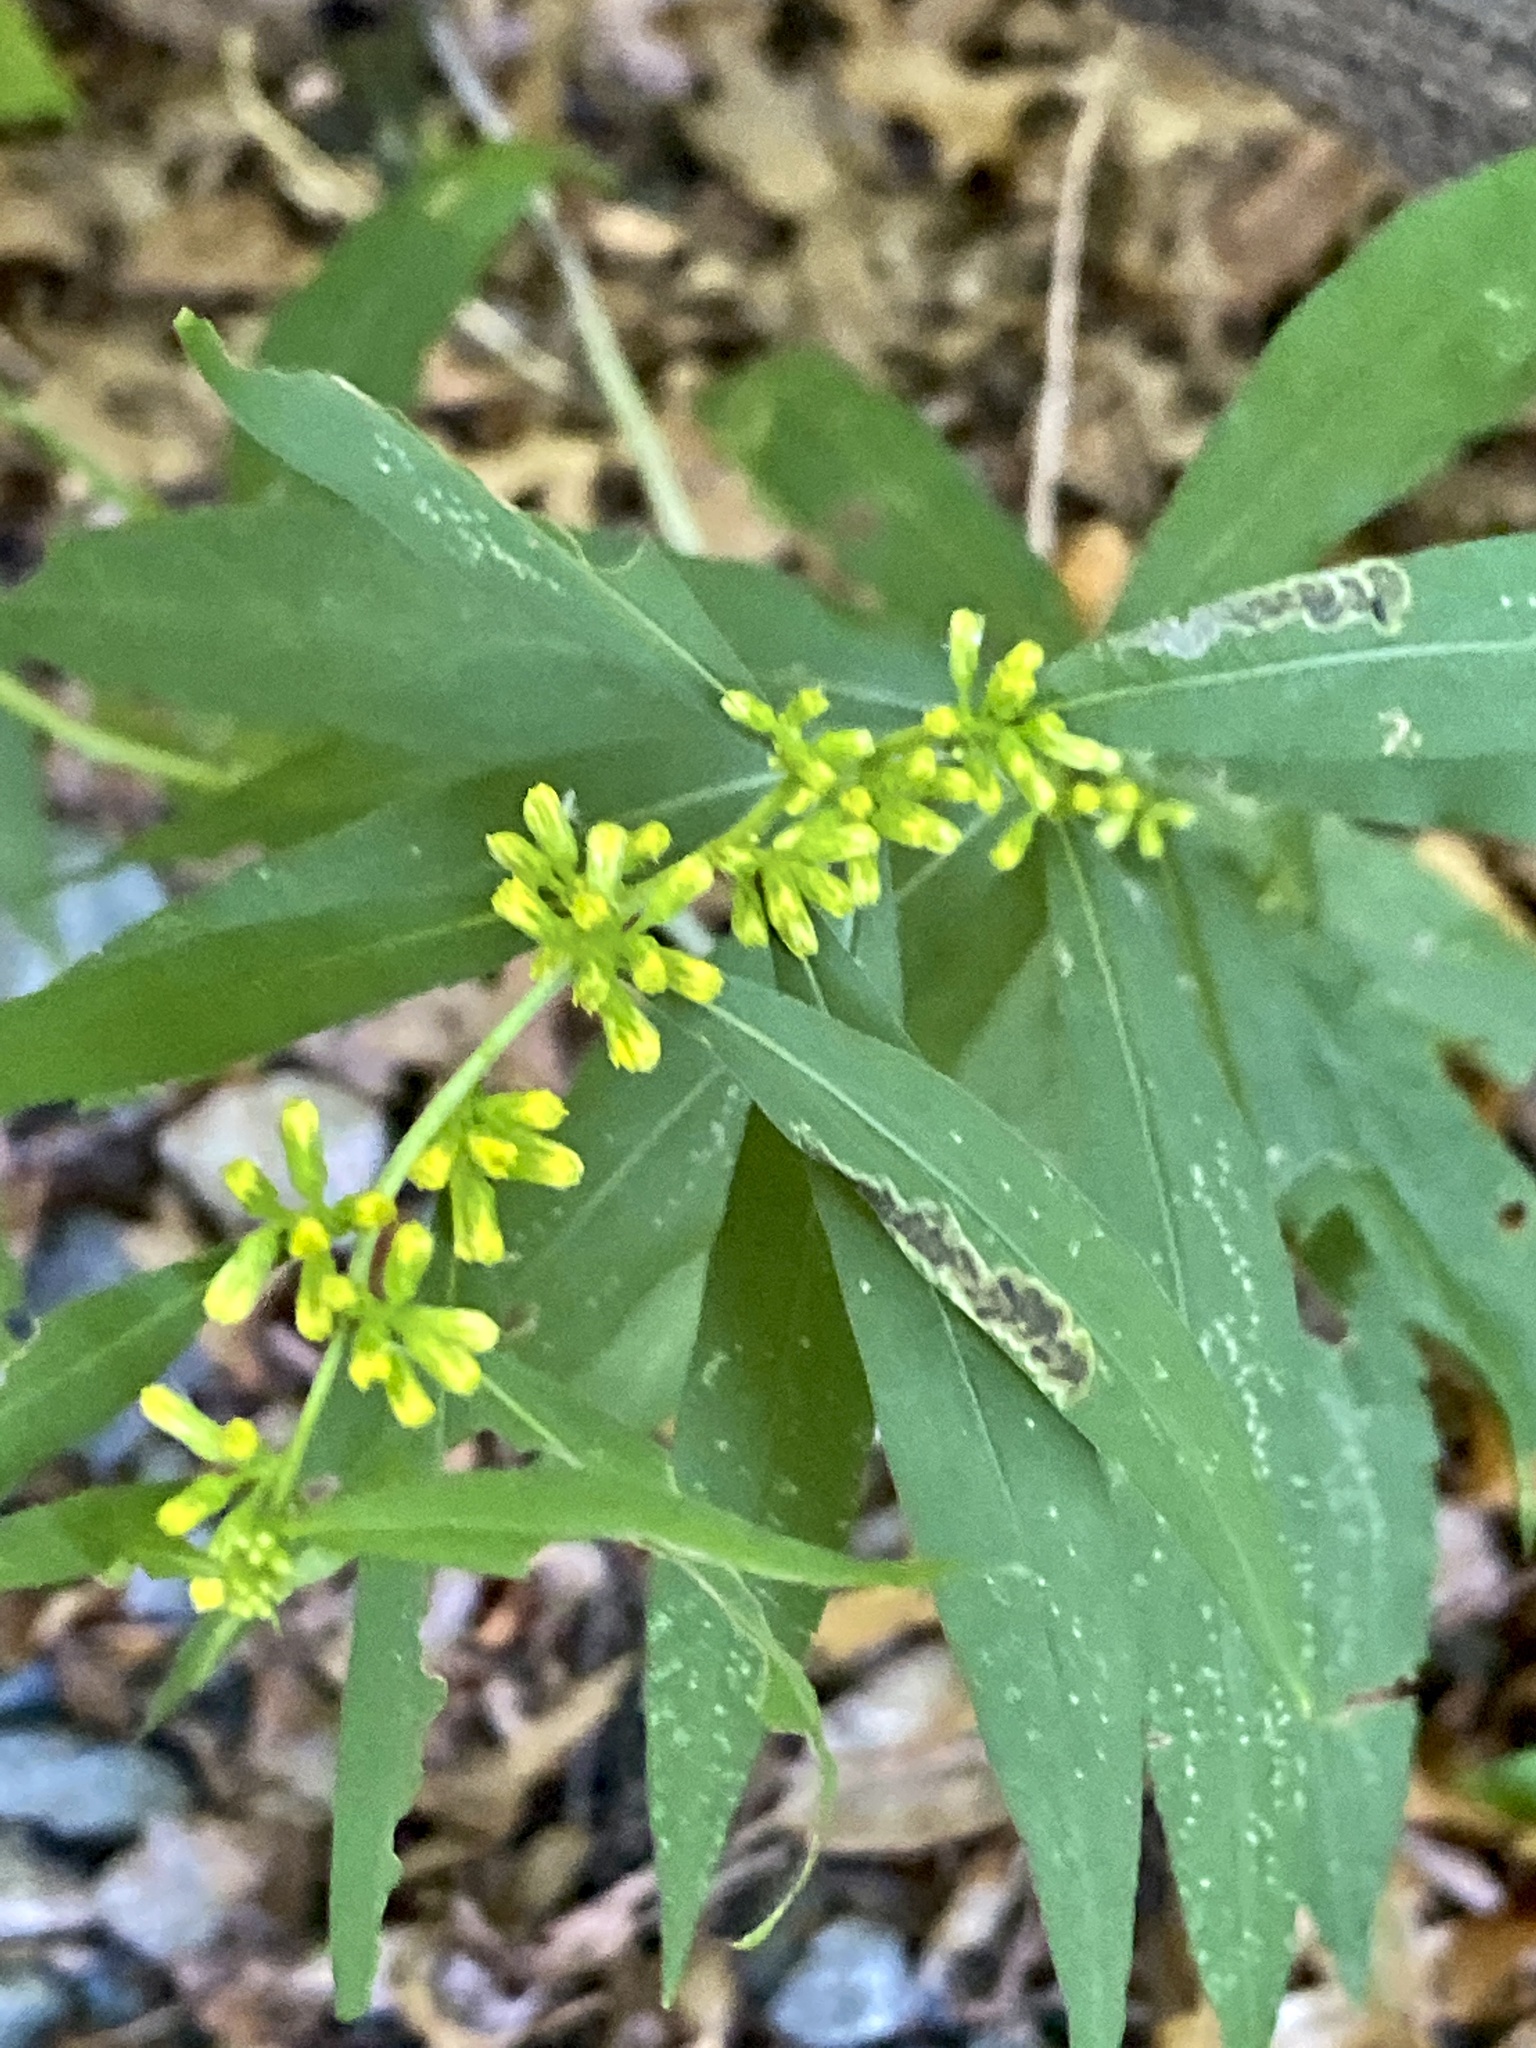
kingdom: Plantae
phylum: Tracheophyta
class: Magnoliopsida
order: Asterales
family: Asteraceae
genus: Solidago
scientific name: Solidago caesia
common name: Woodland goldenrod
